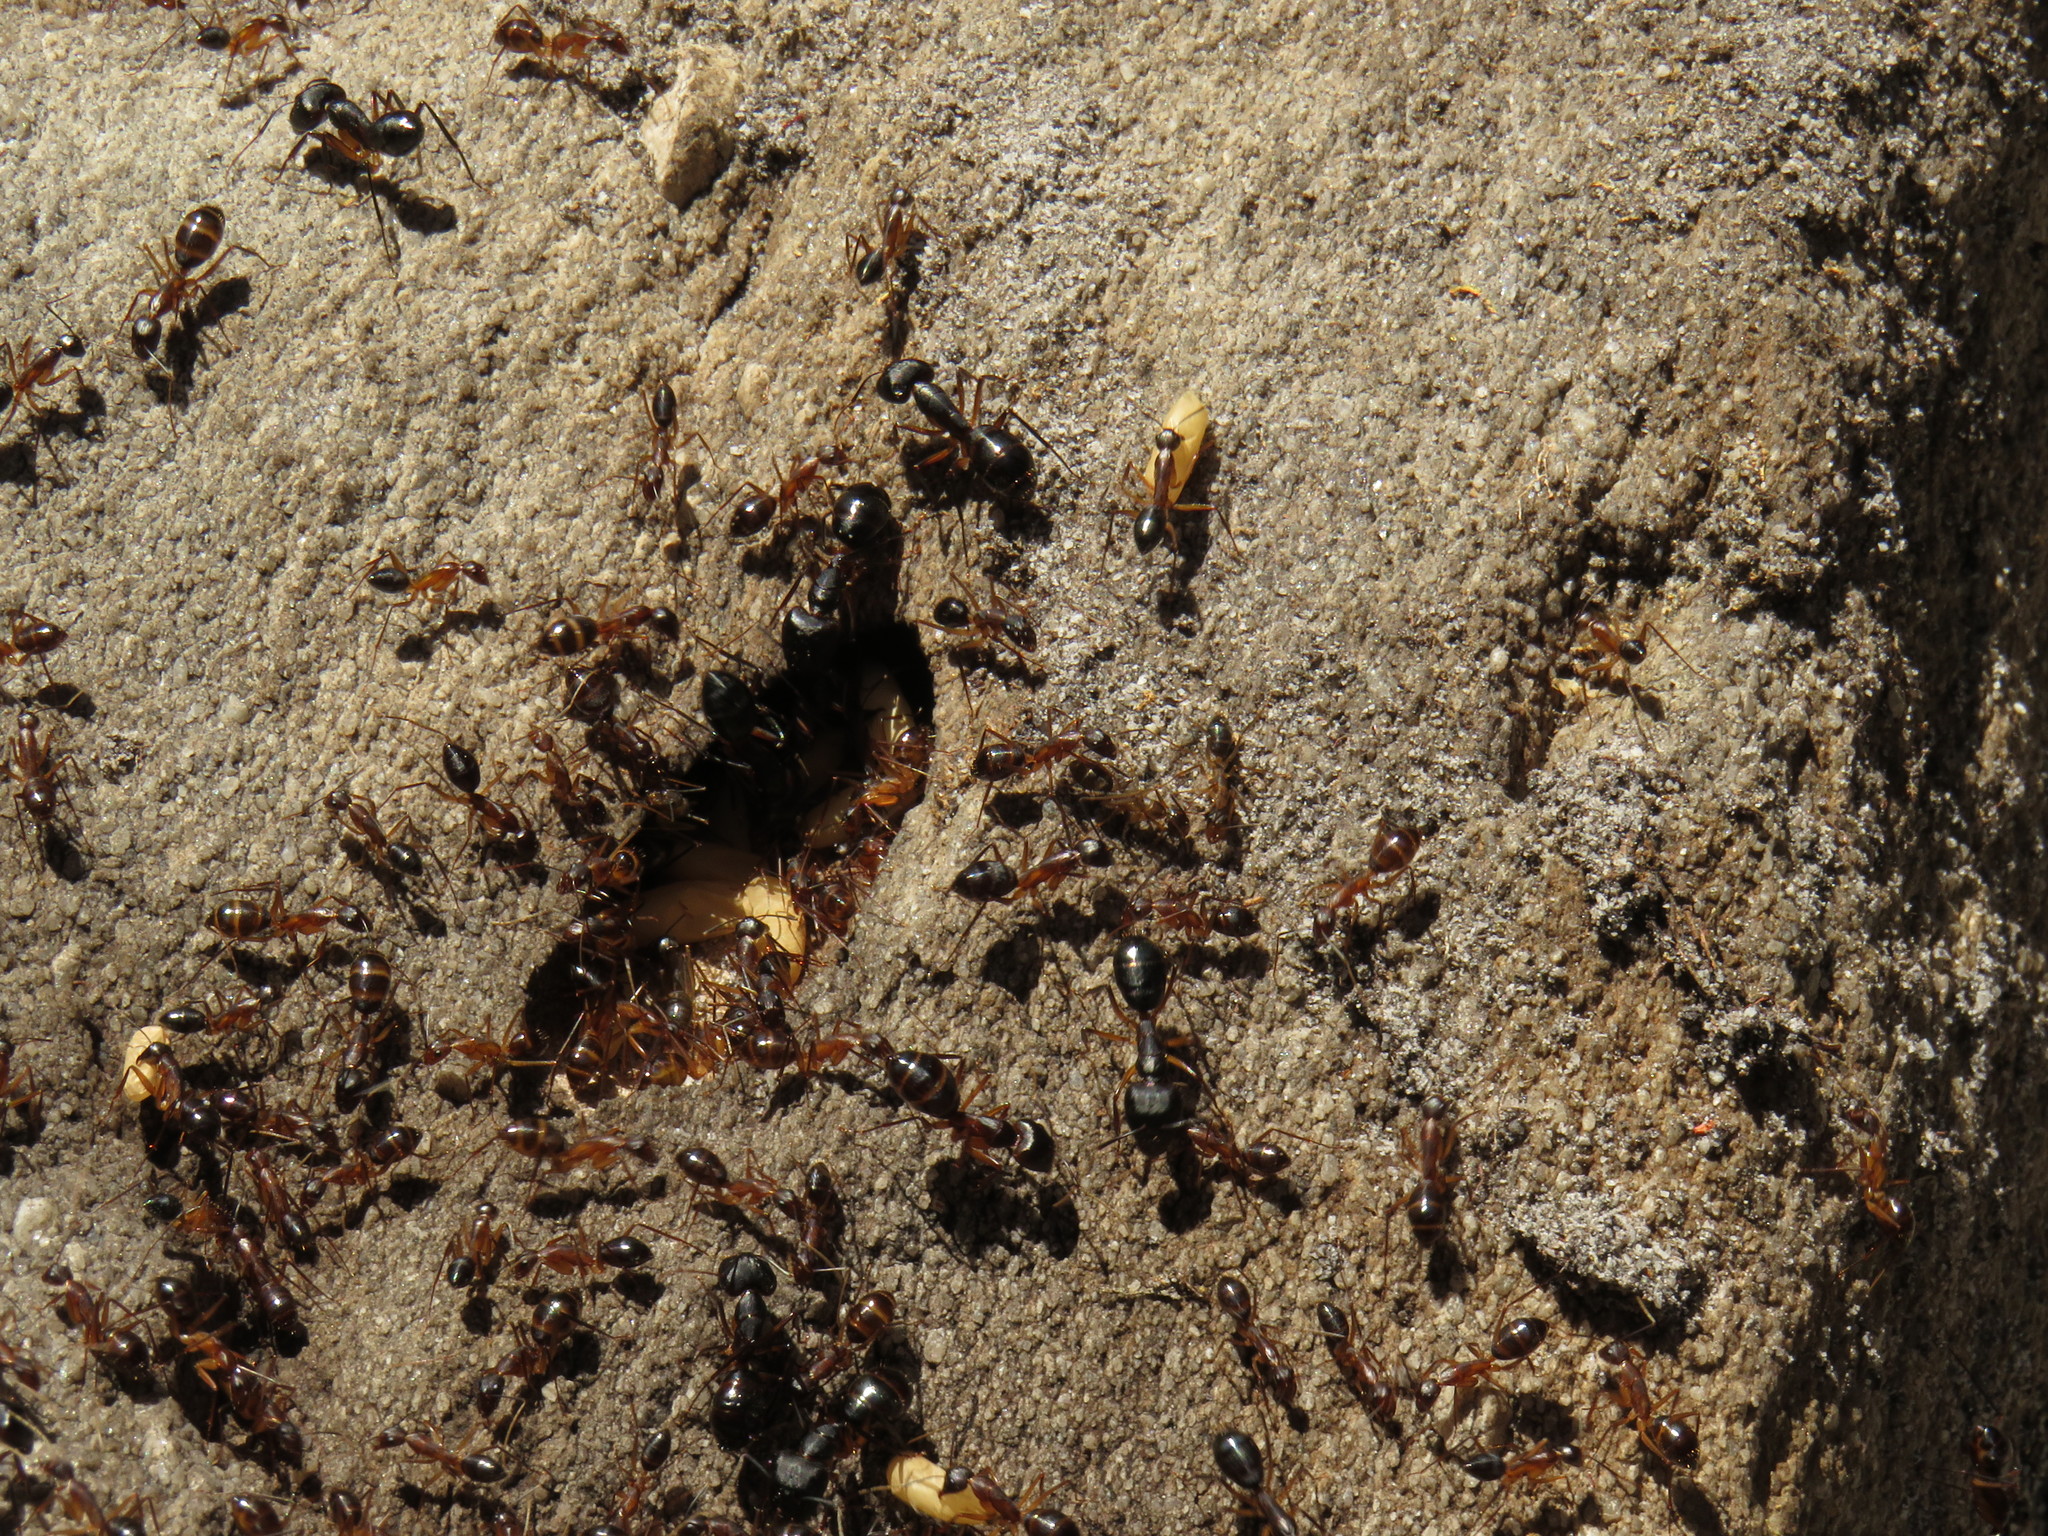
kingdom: Animalia
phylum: Arthropoda
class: Insecta
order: Hymenoptera
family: Formicidae
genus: Camponotus
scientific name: Camponotus knysnae
